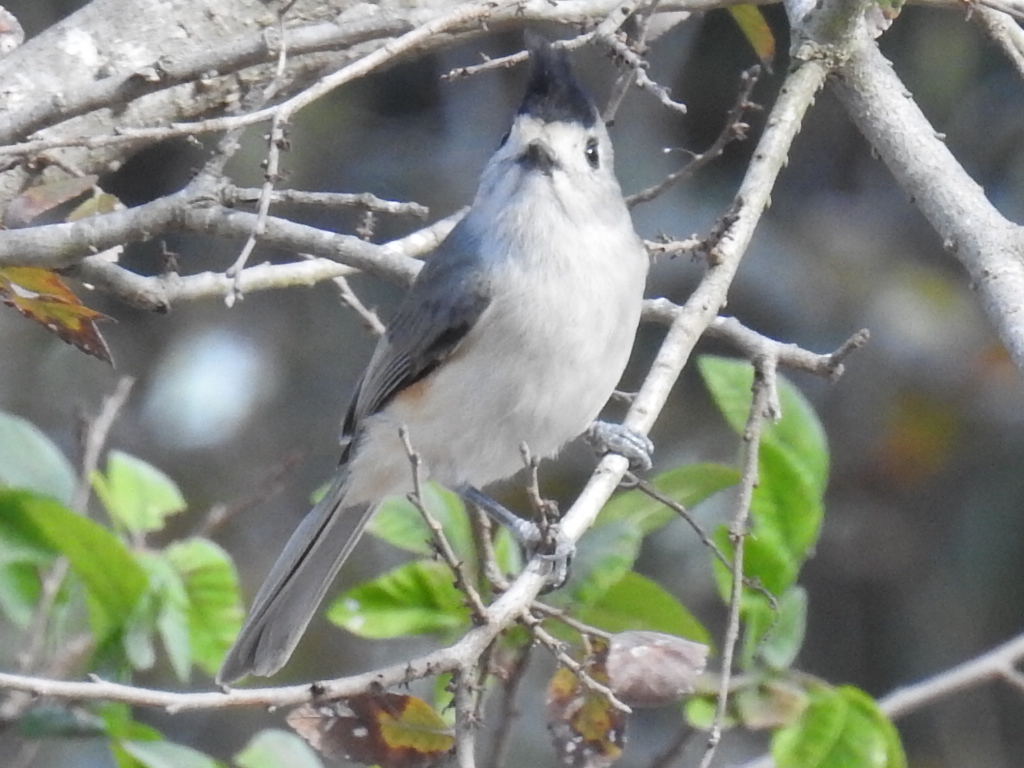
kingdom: Animalia
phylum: Chordata
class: Aves
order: Passeriformes
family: Paridae
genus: Baeolophus
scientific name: Baeolophus atricristatus
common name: Black-crested titmouse
